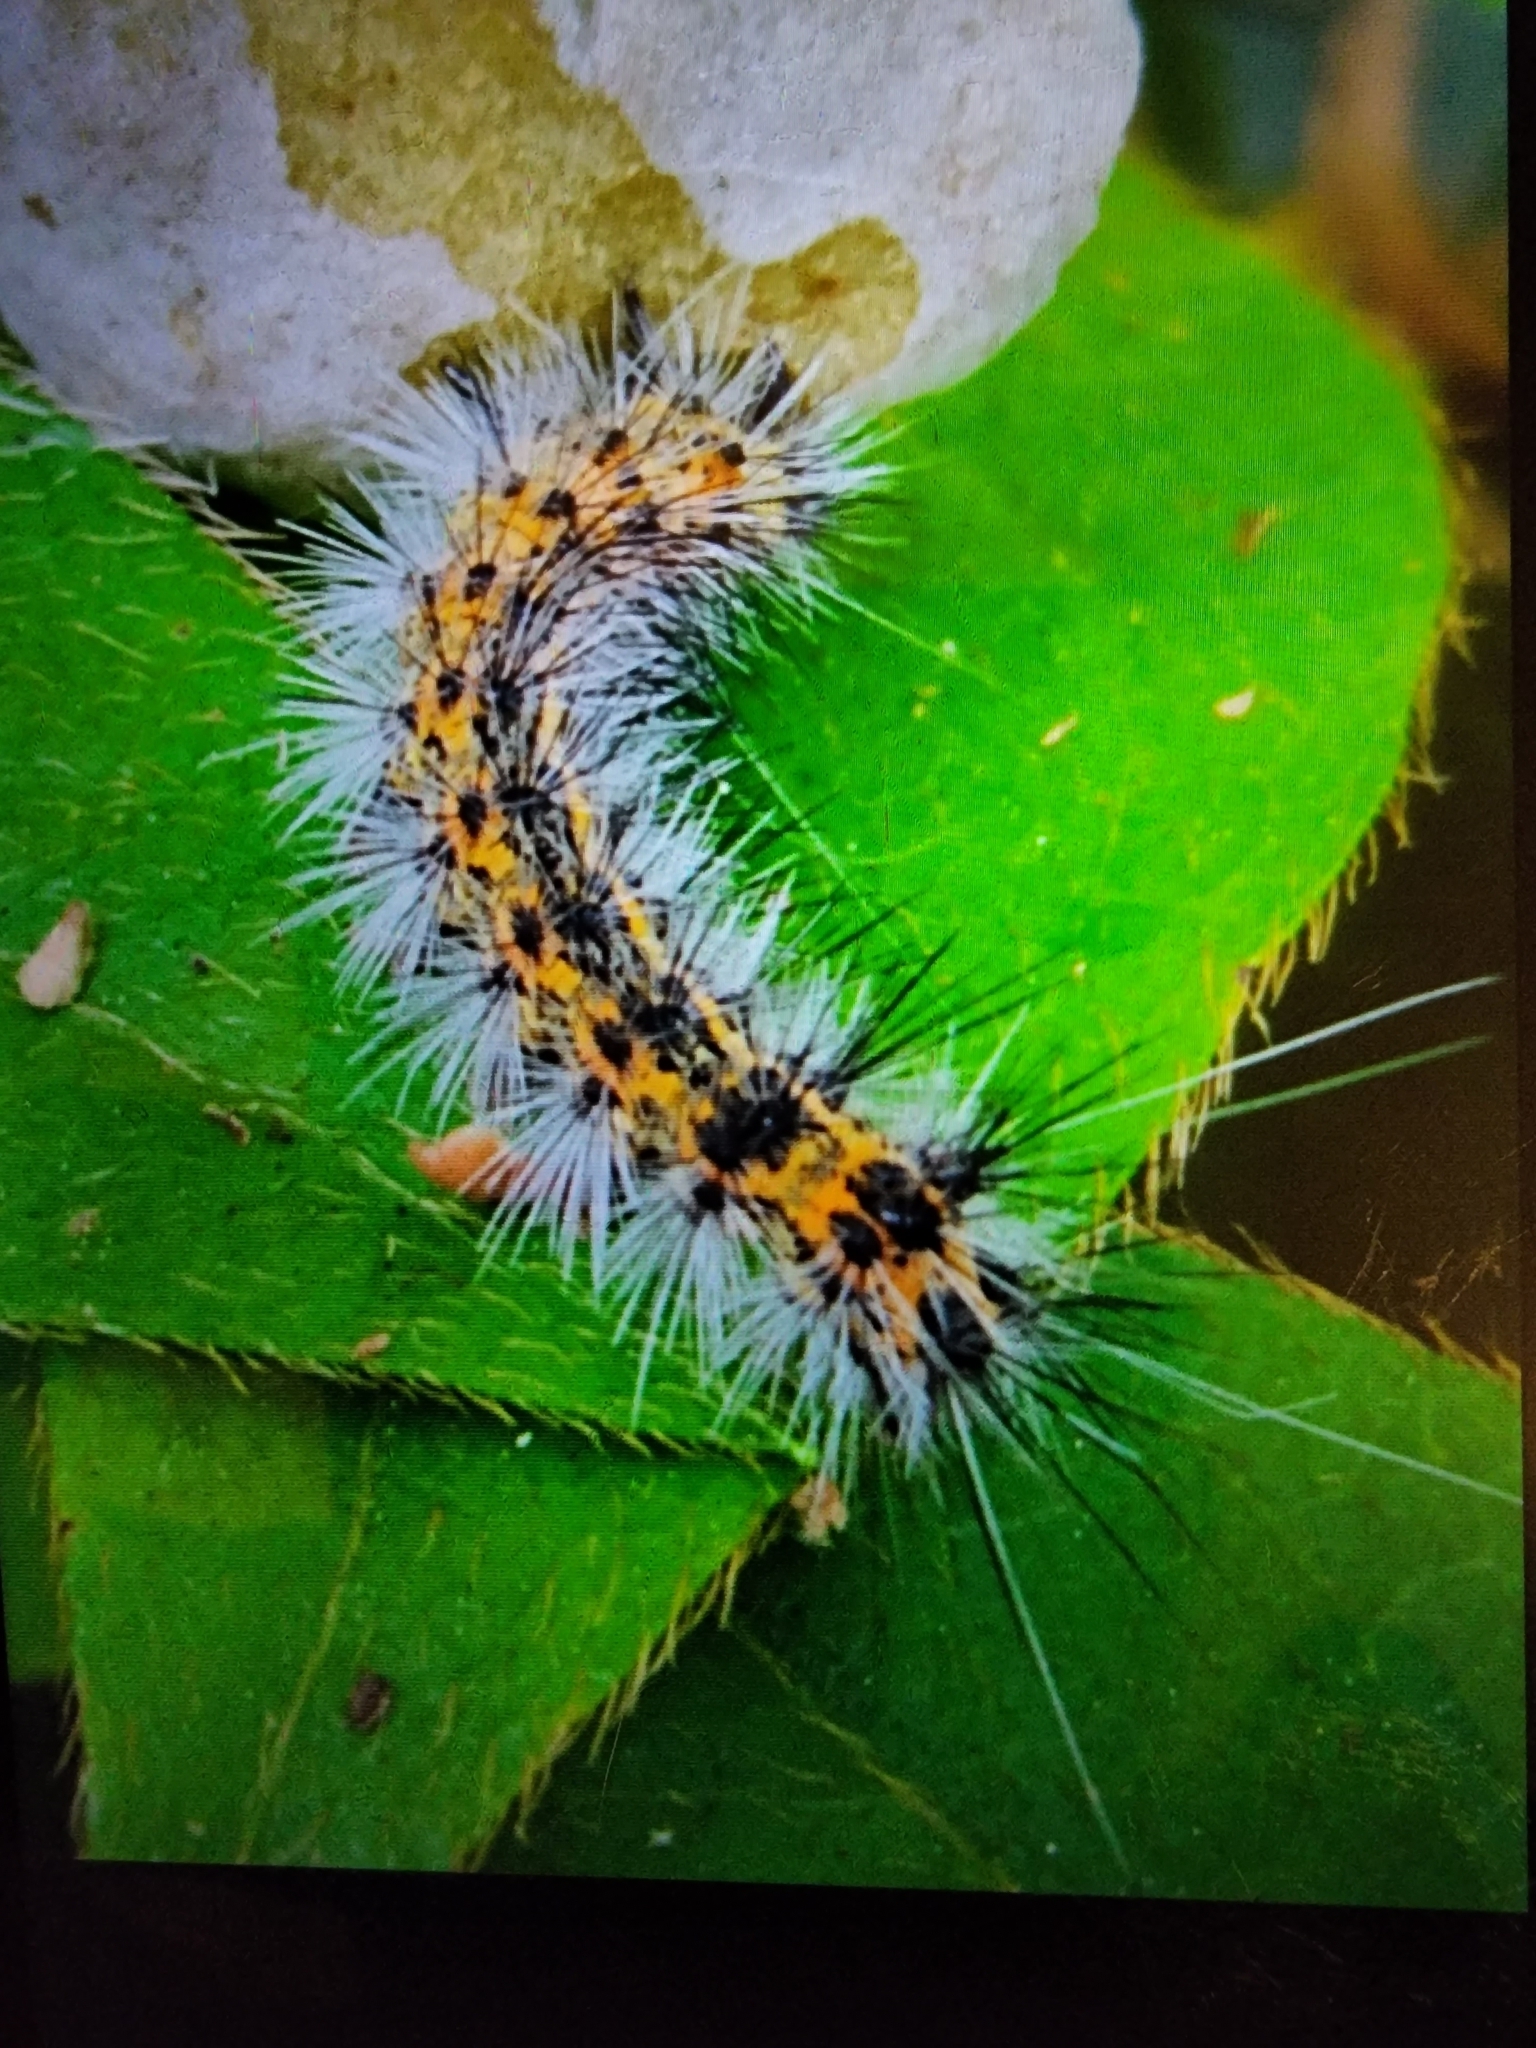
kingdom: Animalia
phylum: Arthropoda
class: Insecta
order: Lepidoptera
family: Erebidae
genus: Spilosoma
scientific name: Spilosoma dubia
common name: Dubious tiger moth
